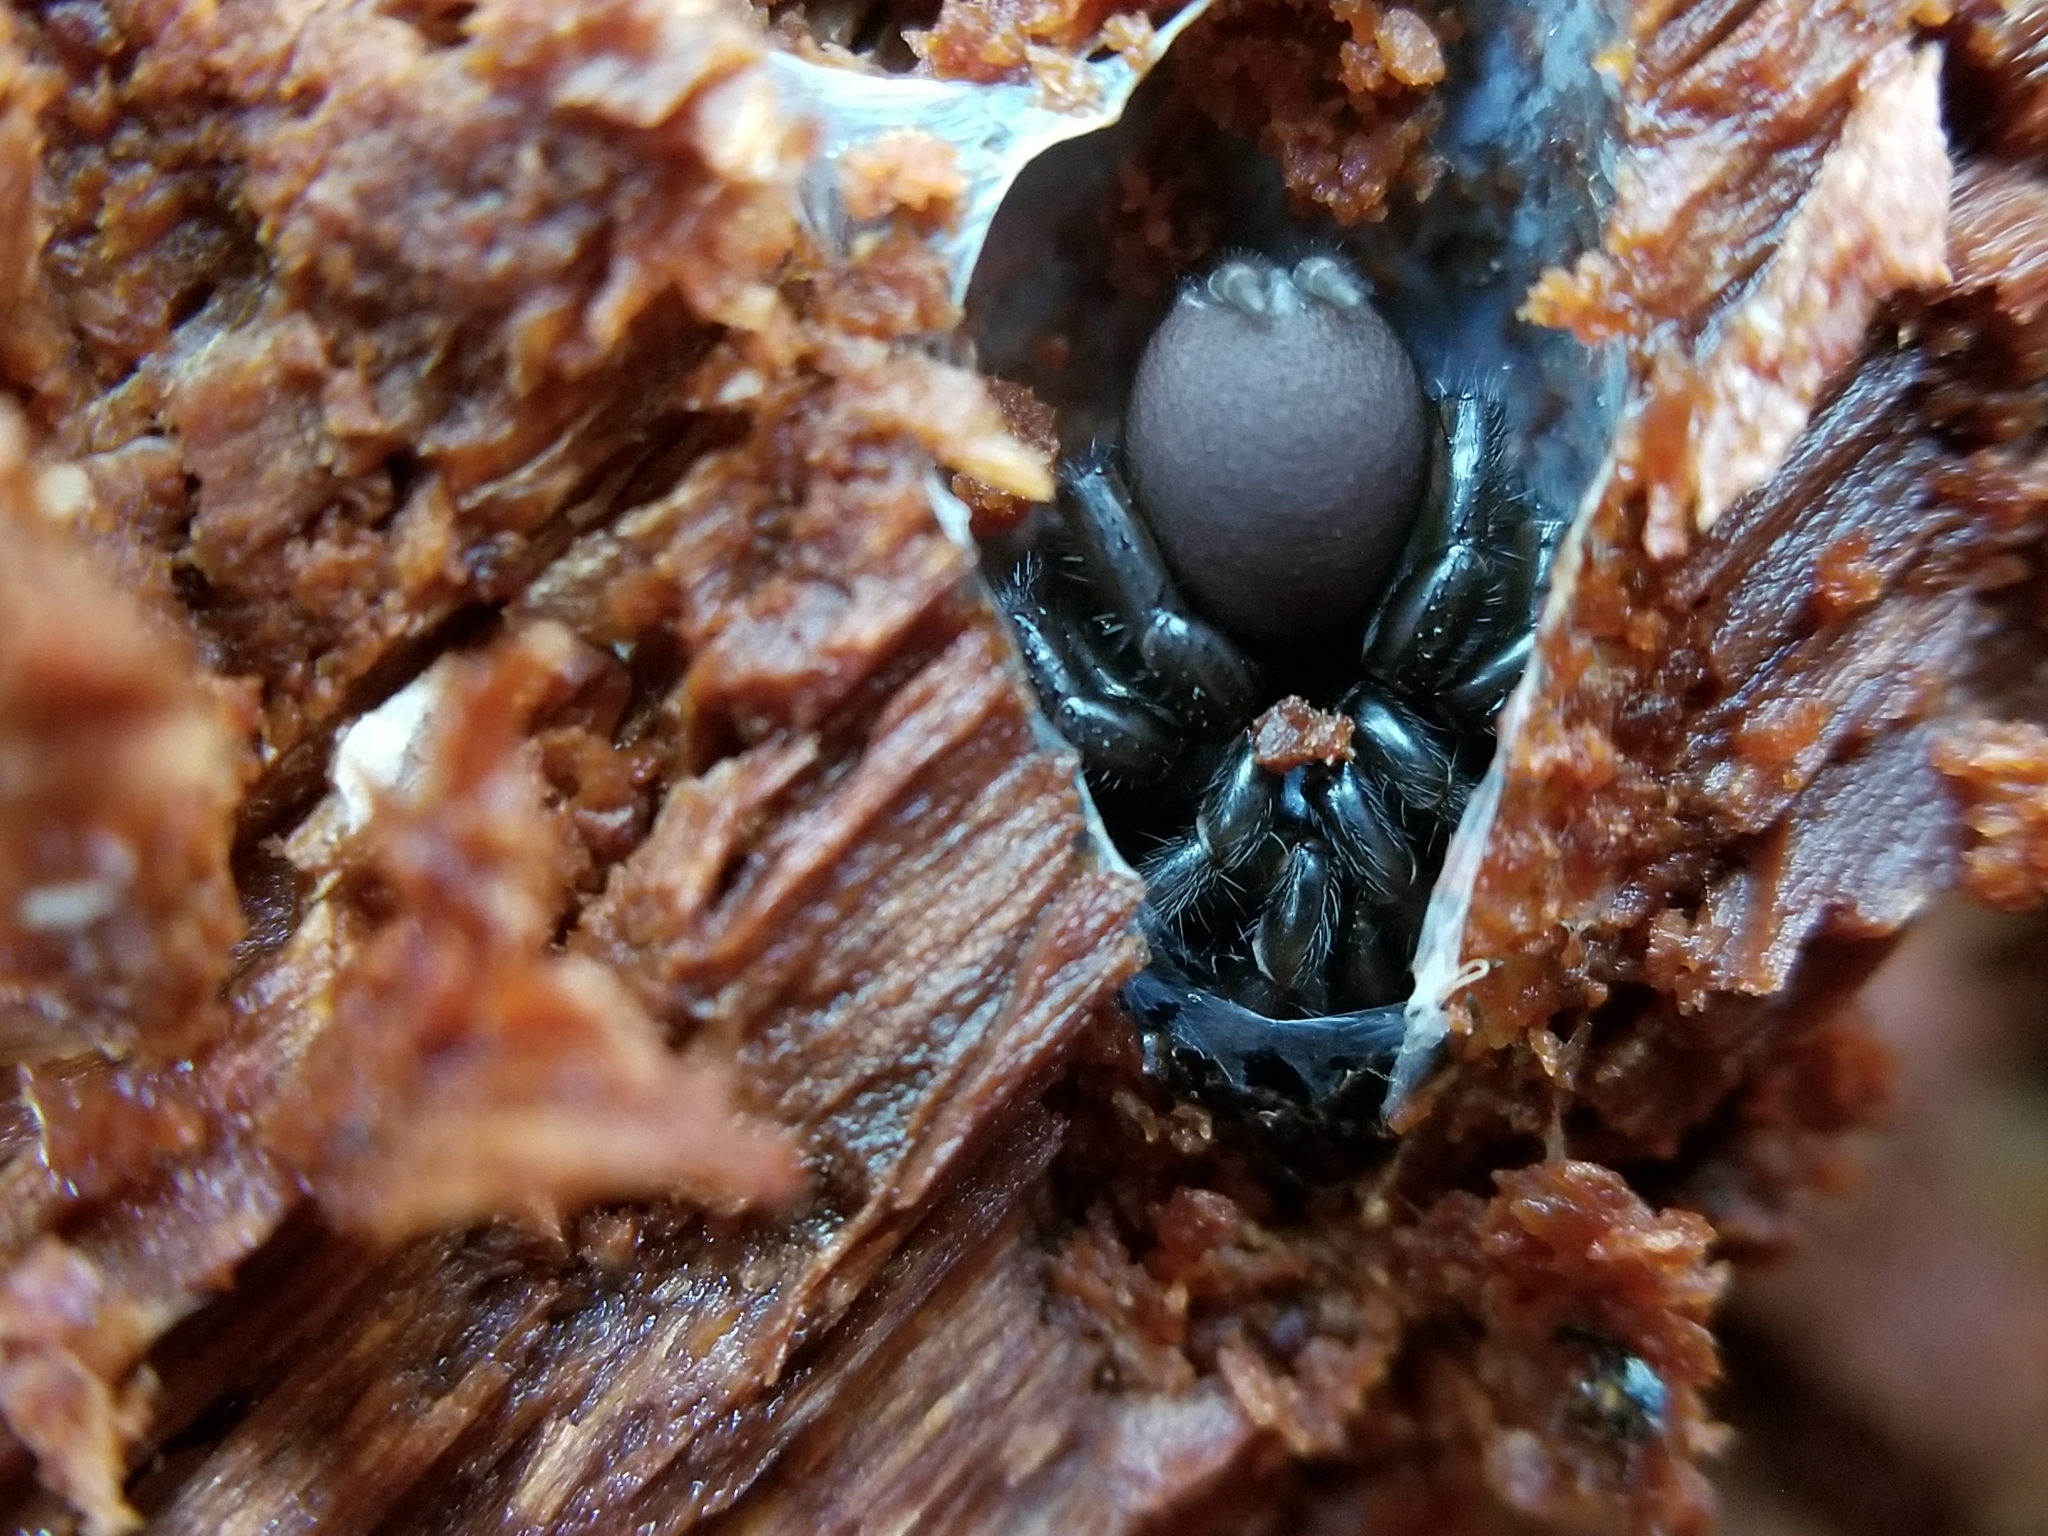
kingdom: Animalia
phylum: Arthropoda
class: Arachnida
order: Araneae
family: Antrodiaetidae
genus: Antrodiaetus
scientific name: Antrodiaetus pacificus
